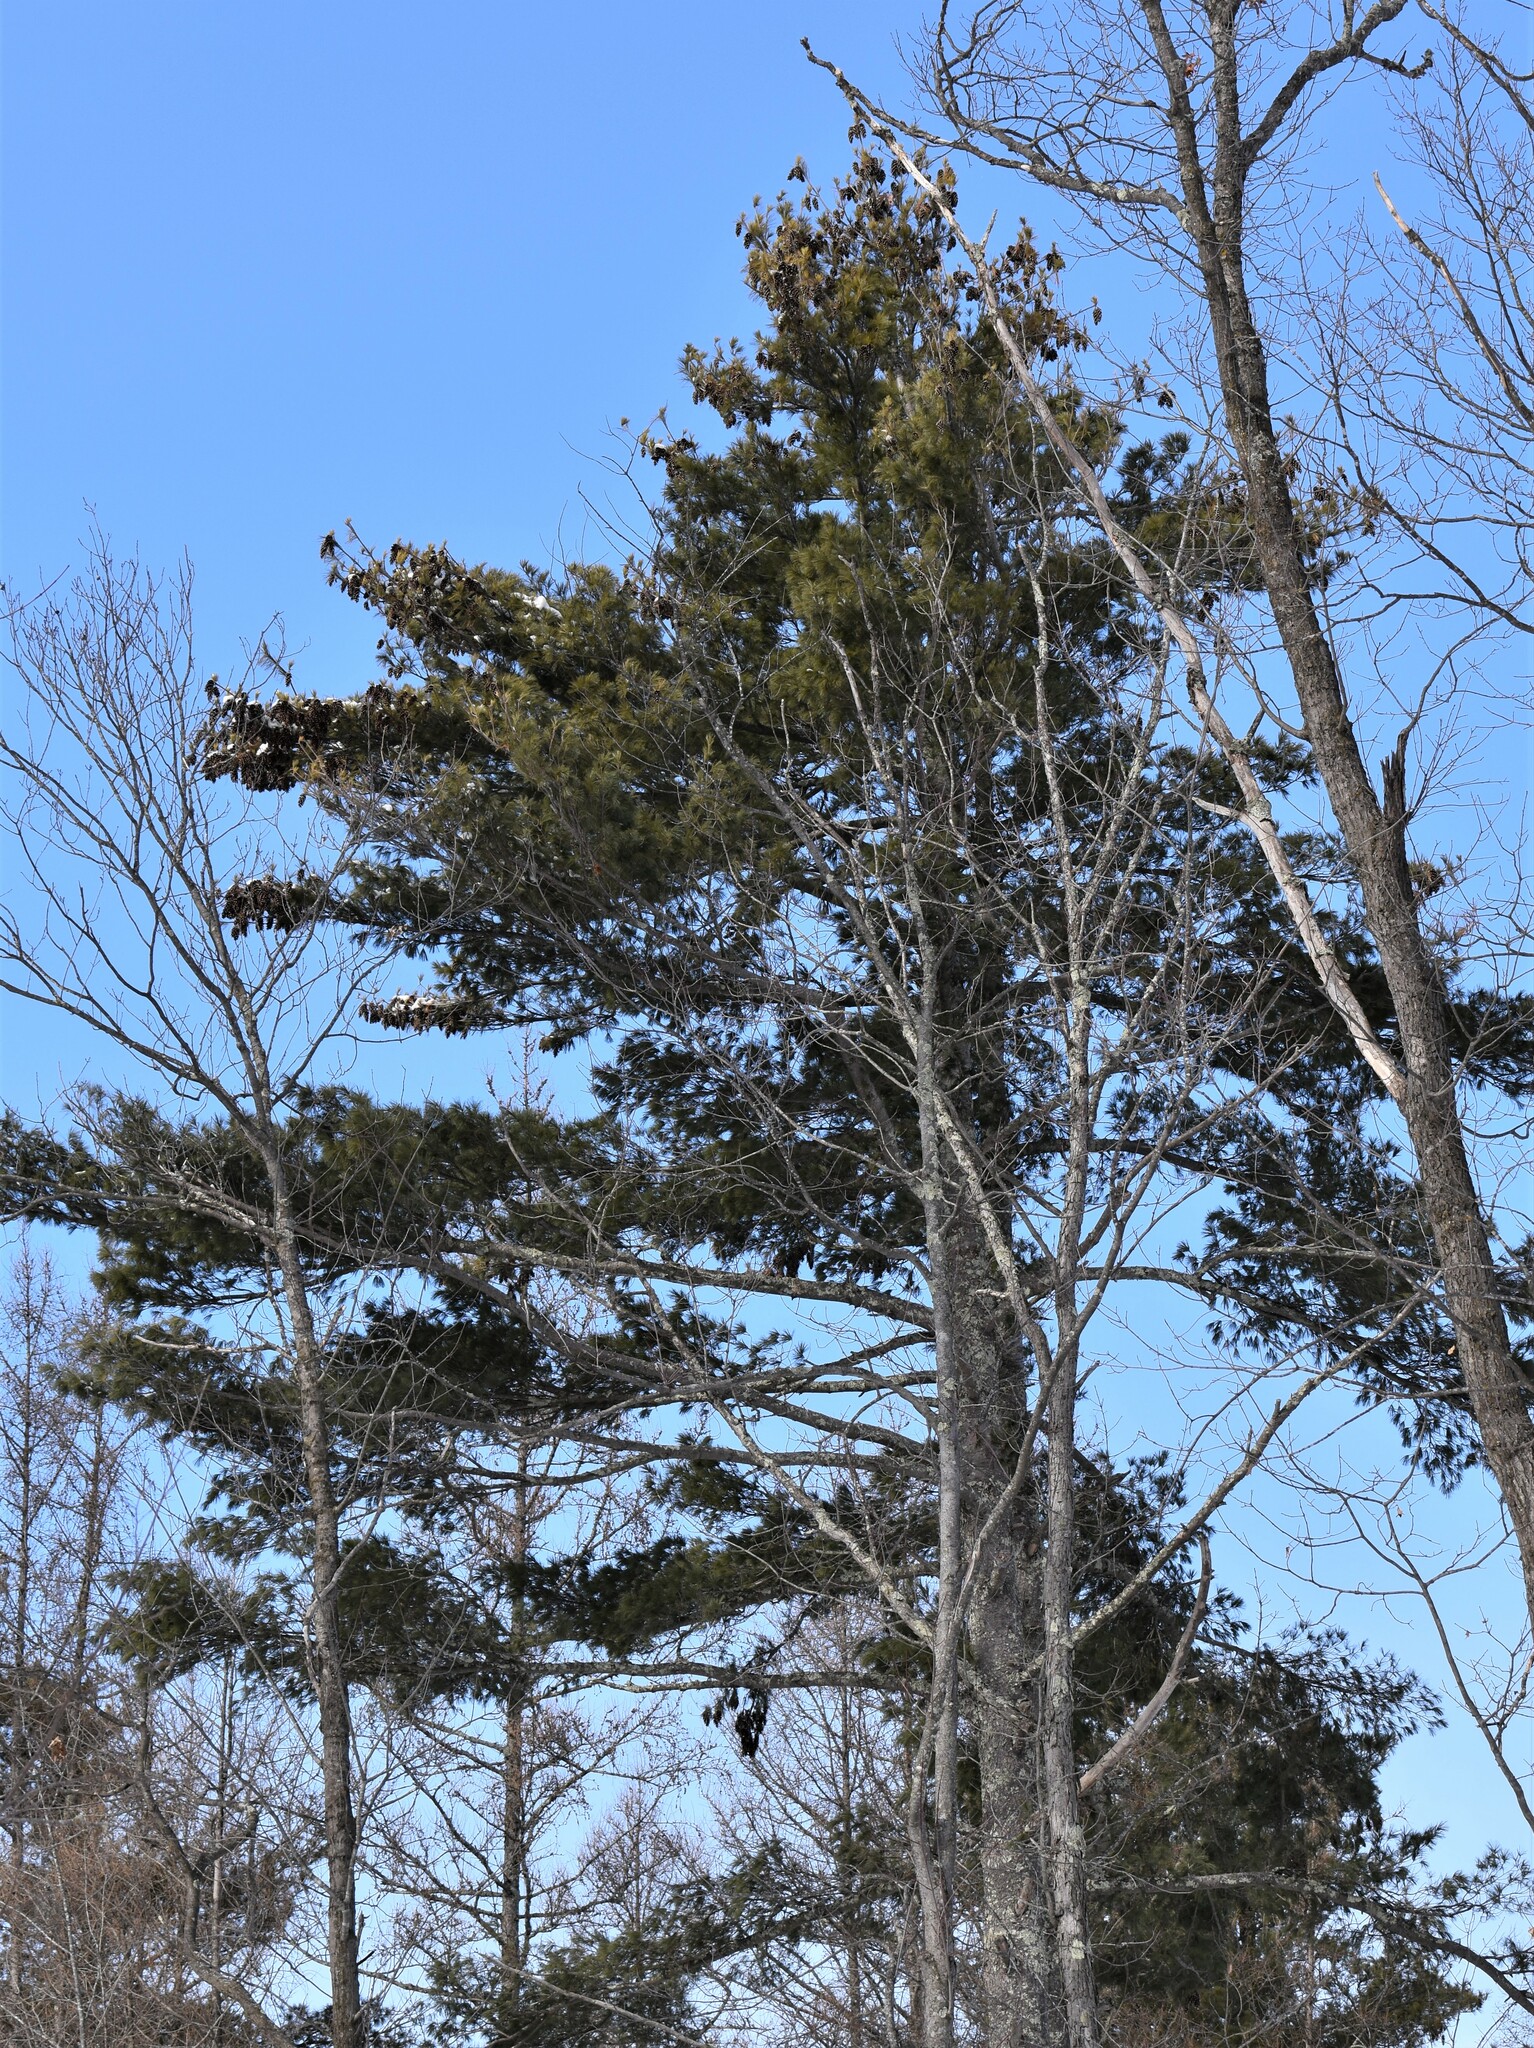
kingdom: Plantae
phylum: Tracheophyta
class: Pinopsida
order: Pinales
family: Pinaceae
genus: Pinus
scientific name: Pinus strobus
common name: Weymouth pine
